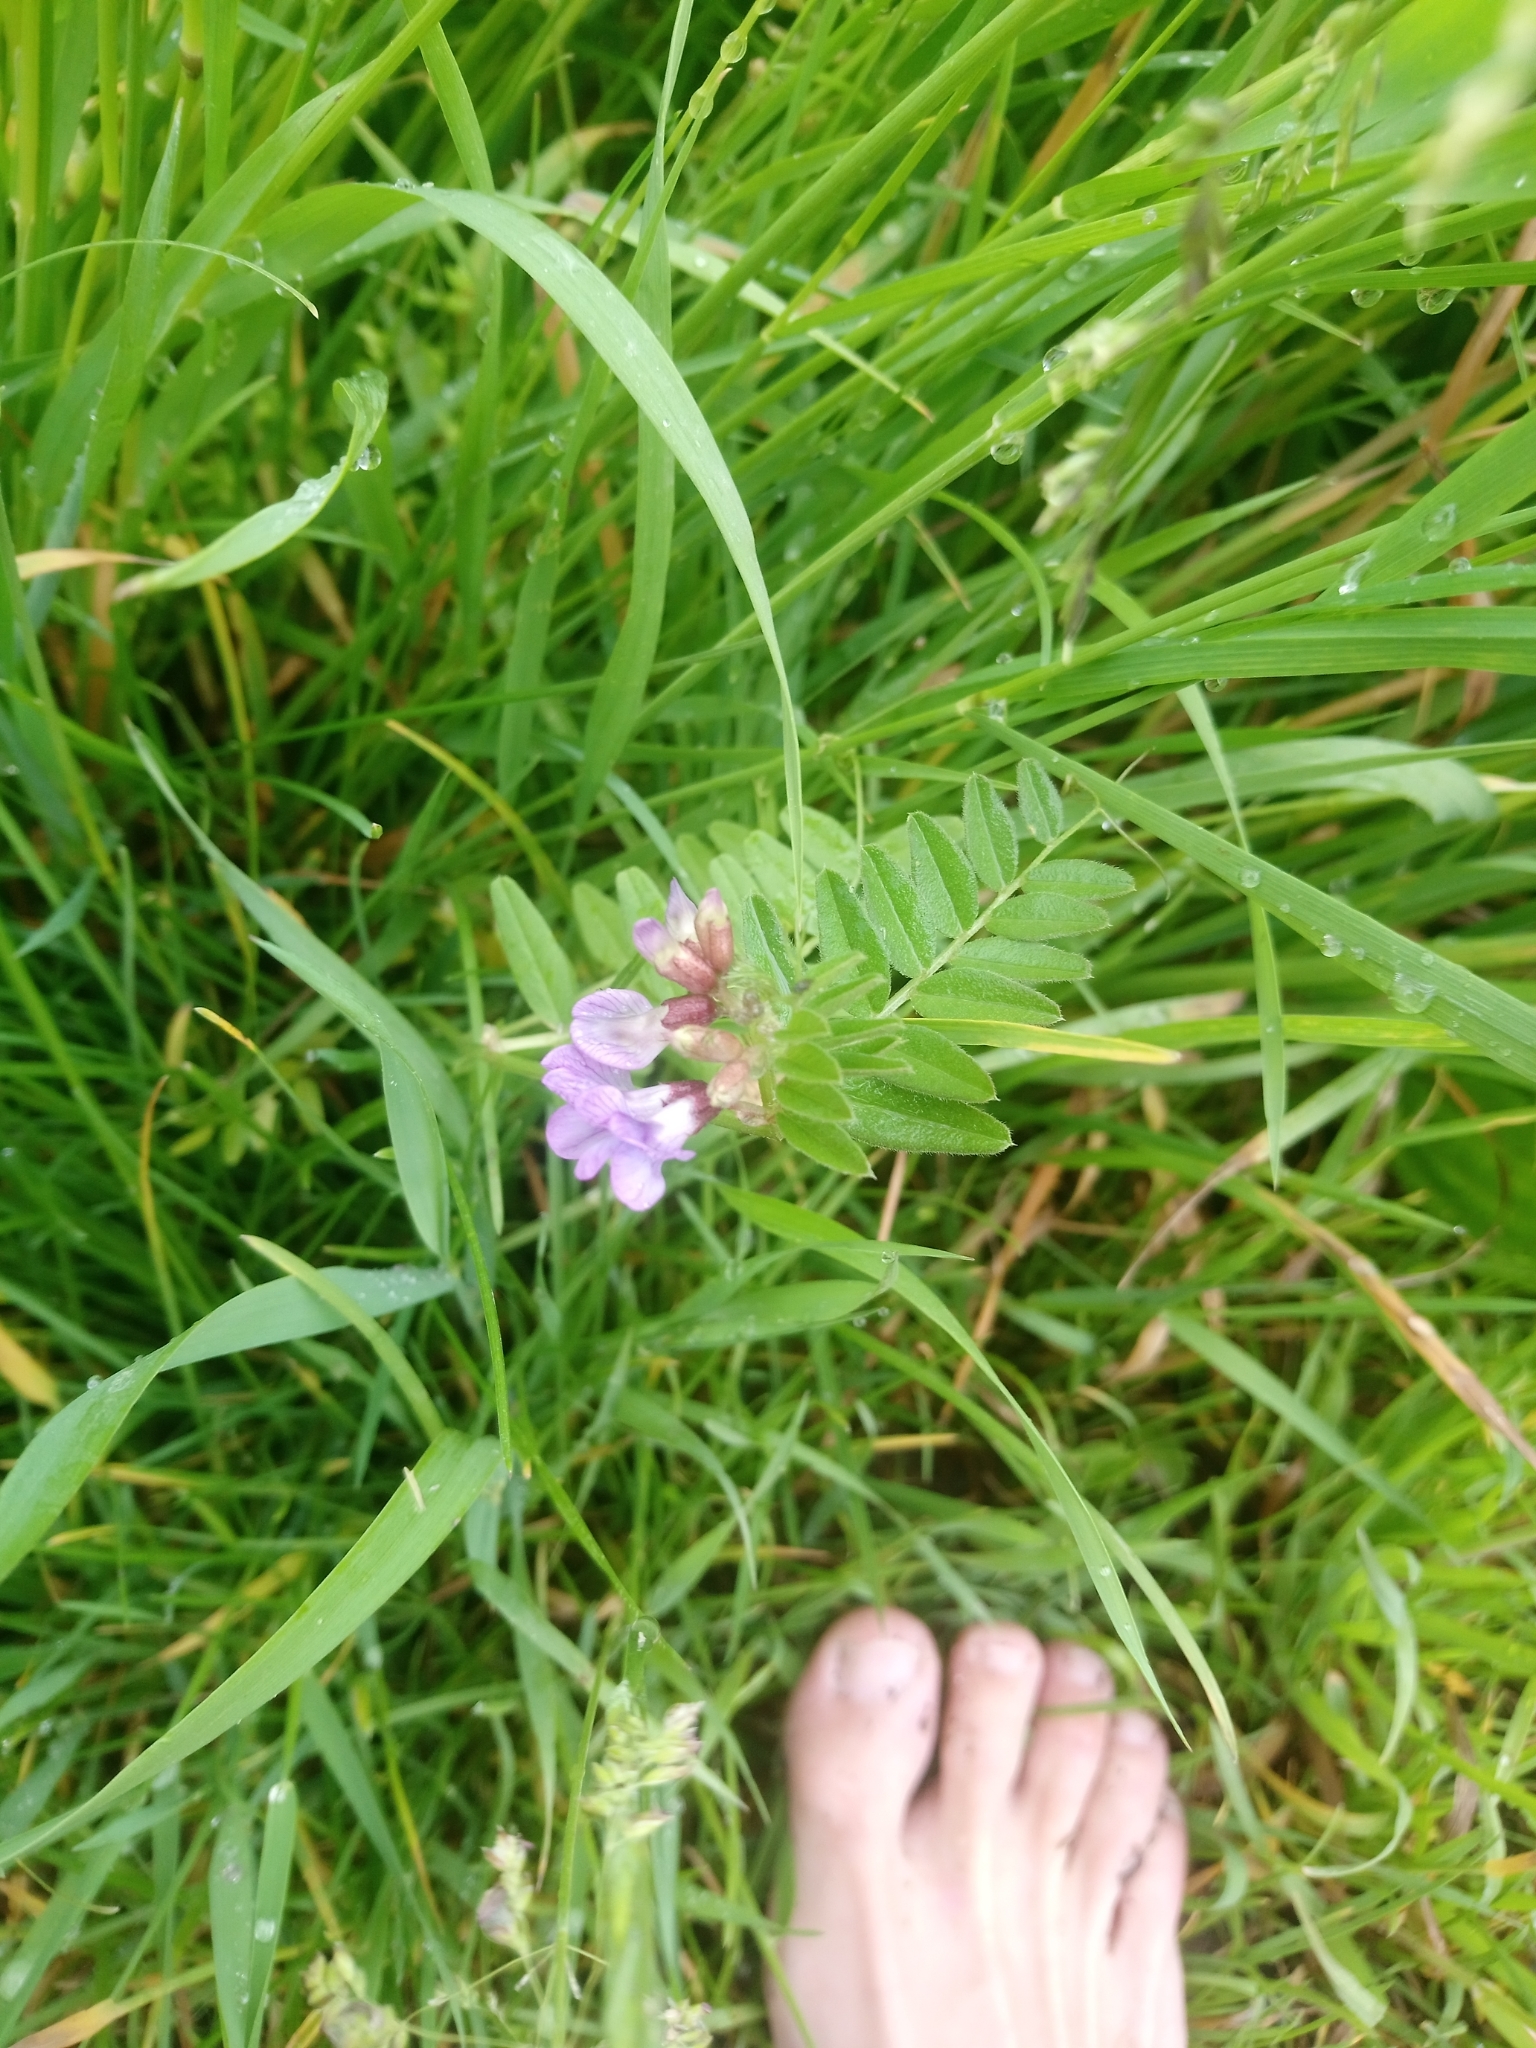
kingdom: Plantae
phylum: Tracheophyta
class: Magnoliopsida
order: Fabales
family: Fabaceae
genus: Vicia
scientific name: Vicia sepium
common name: Bush vetch
